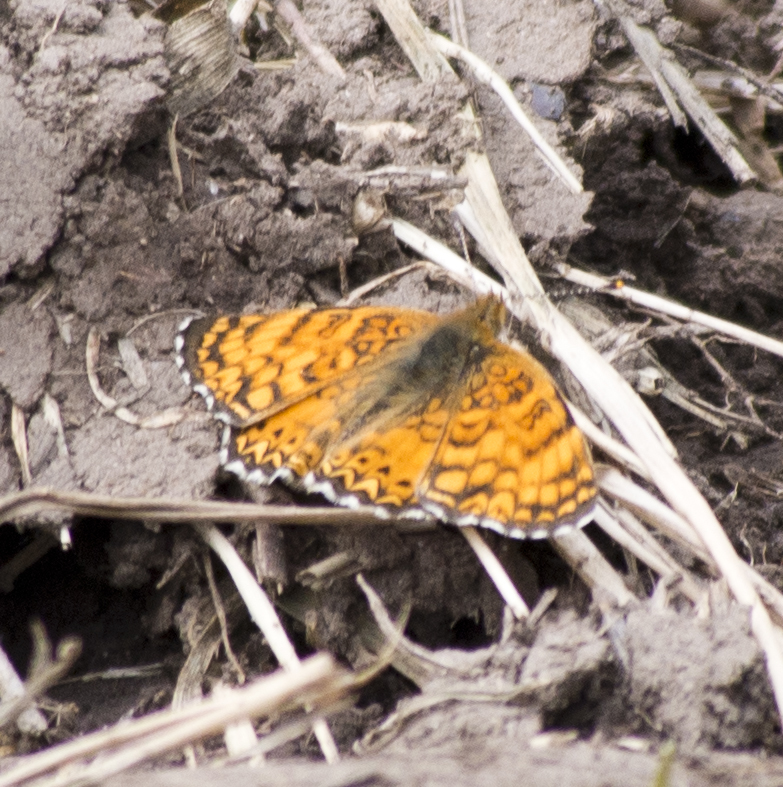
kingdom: Animalia
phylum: Arthropoda
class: Insecta
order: Lepidoptera
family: Nymphalidae
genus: Eresia
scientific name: Eresia aveyrona
